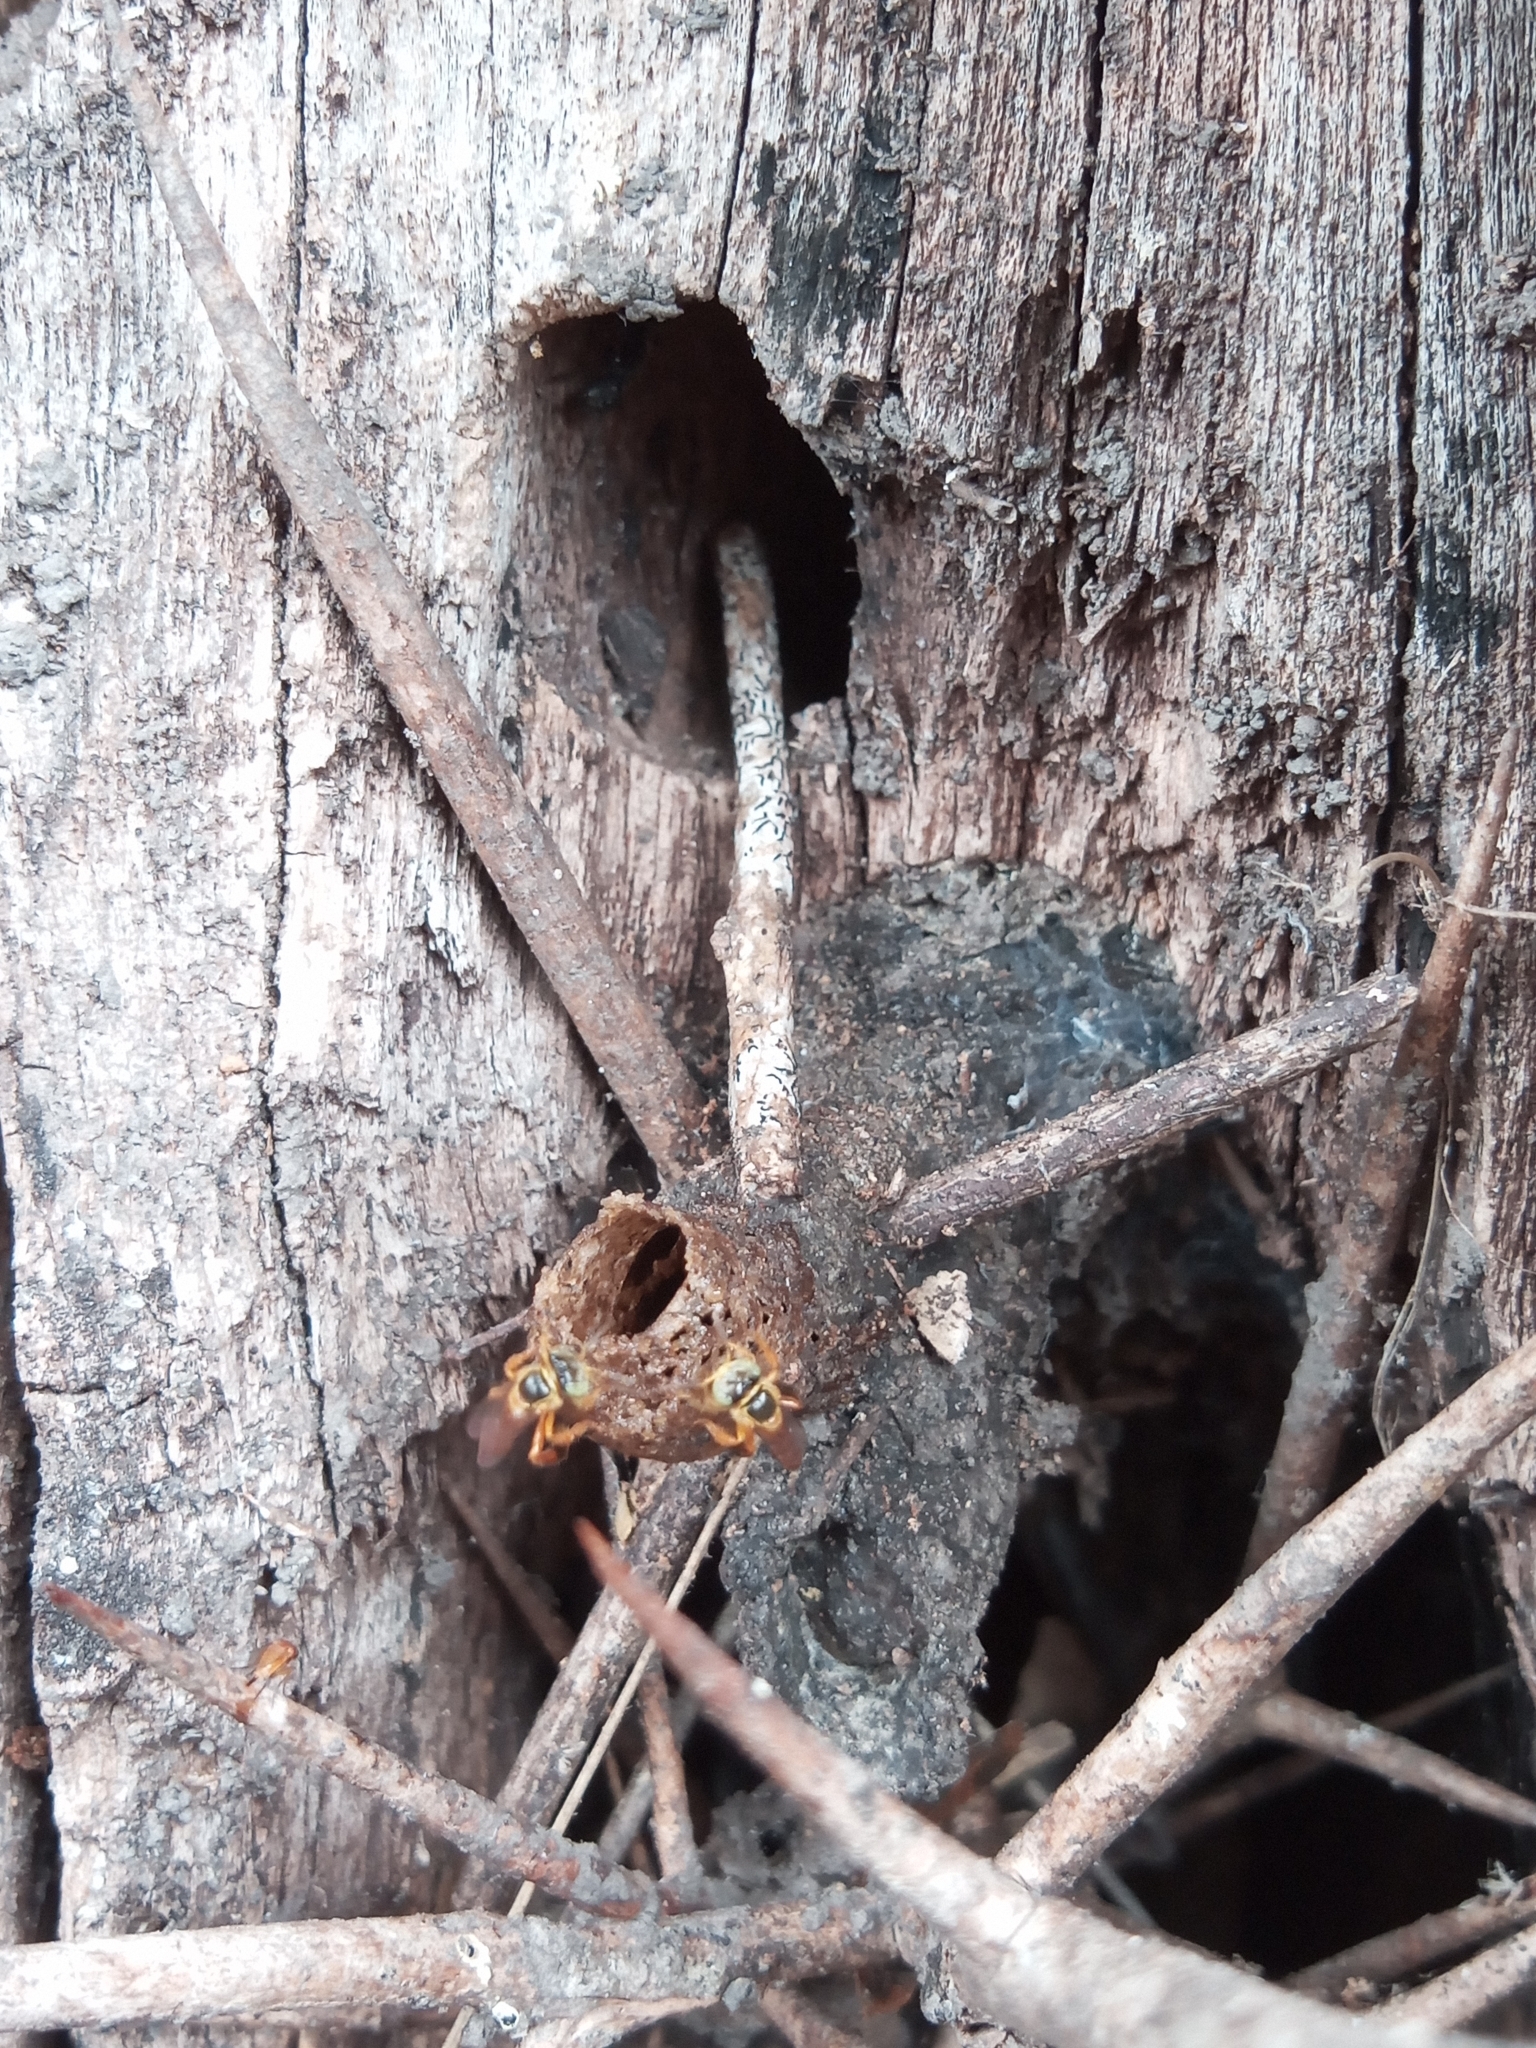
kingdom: Animalia
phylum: Arthropoda
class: Insecta
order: Hymenoptera
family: Apidae
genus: Tetragonisca
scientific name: Tetragonisca fiebrigi
